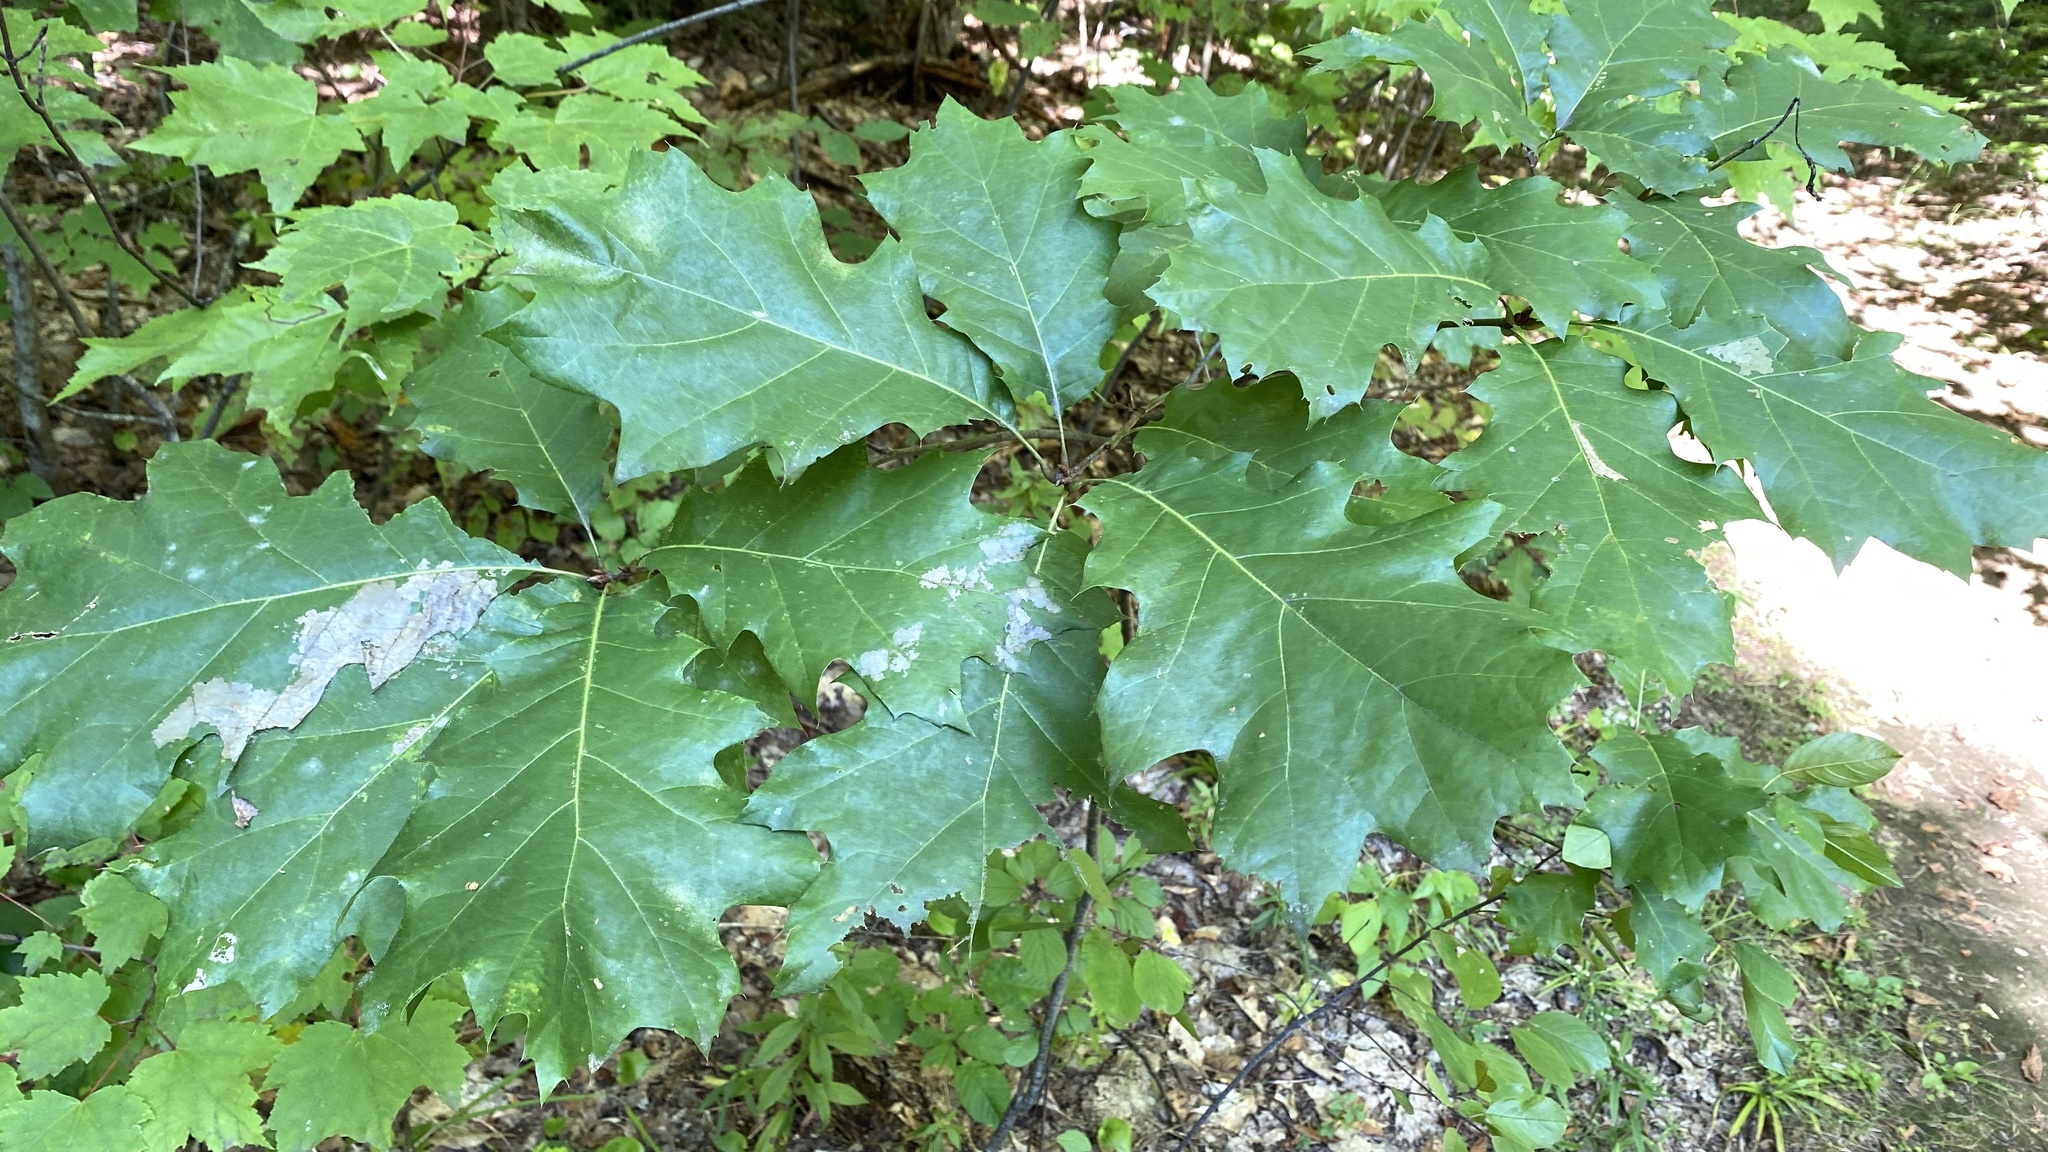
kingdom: Plantae
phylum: Tracheophyta
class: Magnoliopsida
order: Fagales
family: Fagaceae
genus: Quercus
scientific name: Quercus rubra
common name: Red oak
